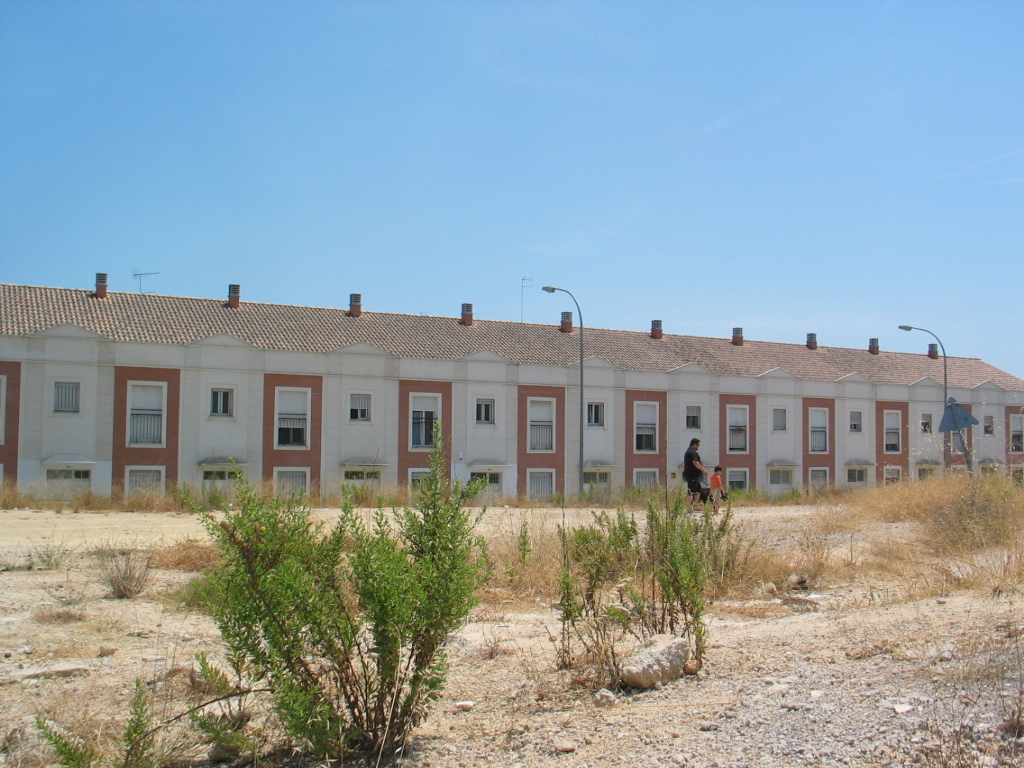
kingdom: Plantae
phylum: Tracheophyta
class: Magnoliopsida
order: Asterales
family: Asteraceae
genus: Dittrichia
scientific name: Dittrichia viscosa
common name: Woody fleabane
